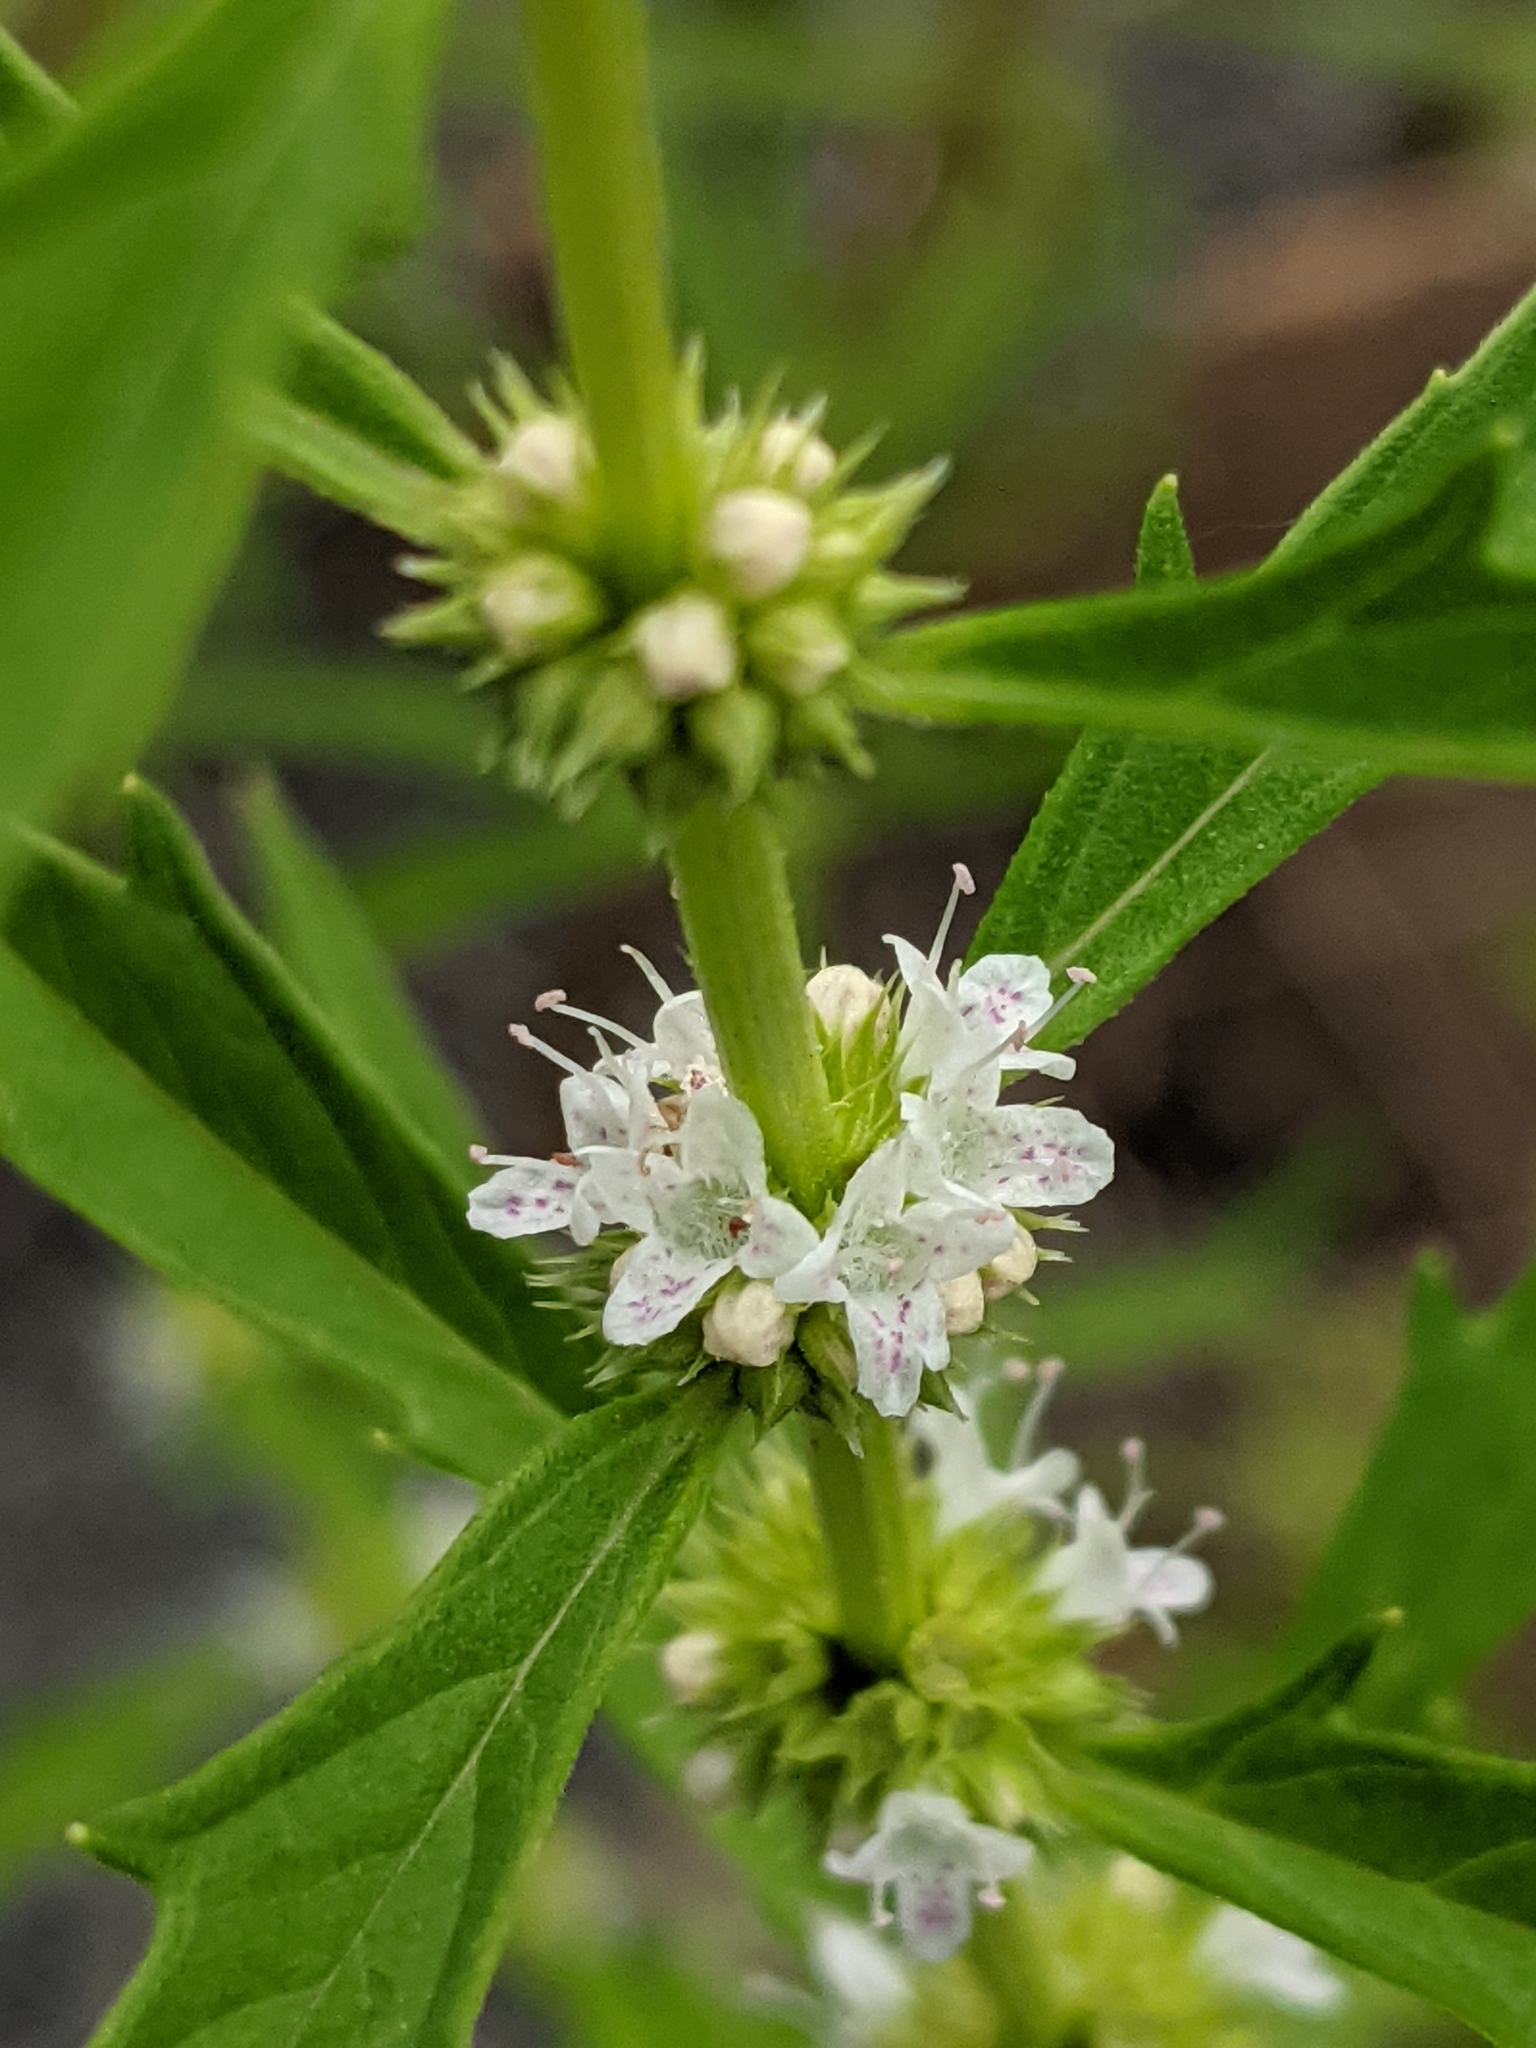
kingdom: Plantae
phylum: Tracheophyta
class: Magnoliopsida
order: Lamiales
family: Lamiaceae
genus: Lycopus
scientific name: Lycopus americanus
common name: American bugleweed
